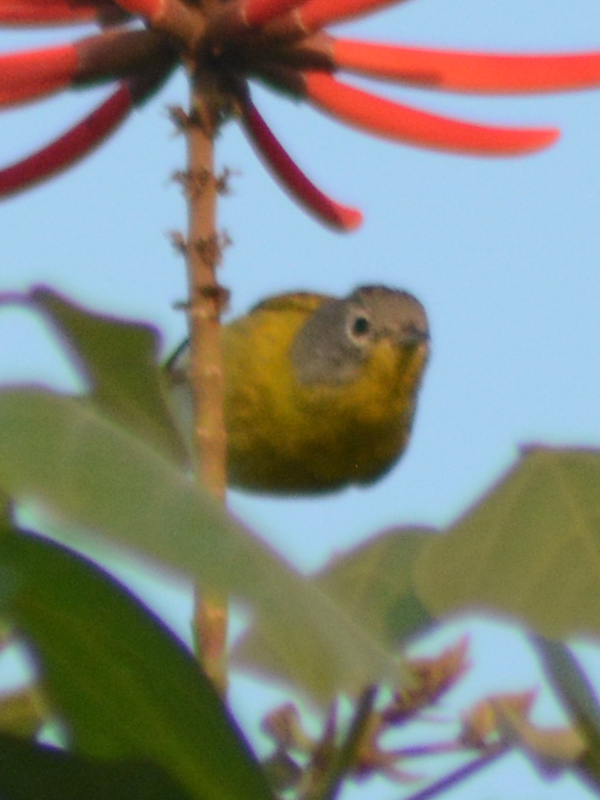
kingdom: Animalia
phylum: Chordata
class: Aves
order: Passeriformes
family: Parulidae
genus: Leiothlypis
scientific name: Leiothlypis ruficapilla
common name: Nashville warbler
